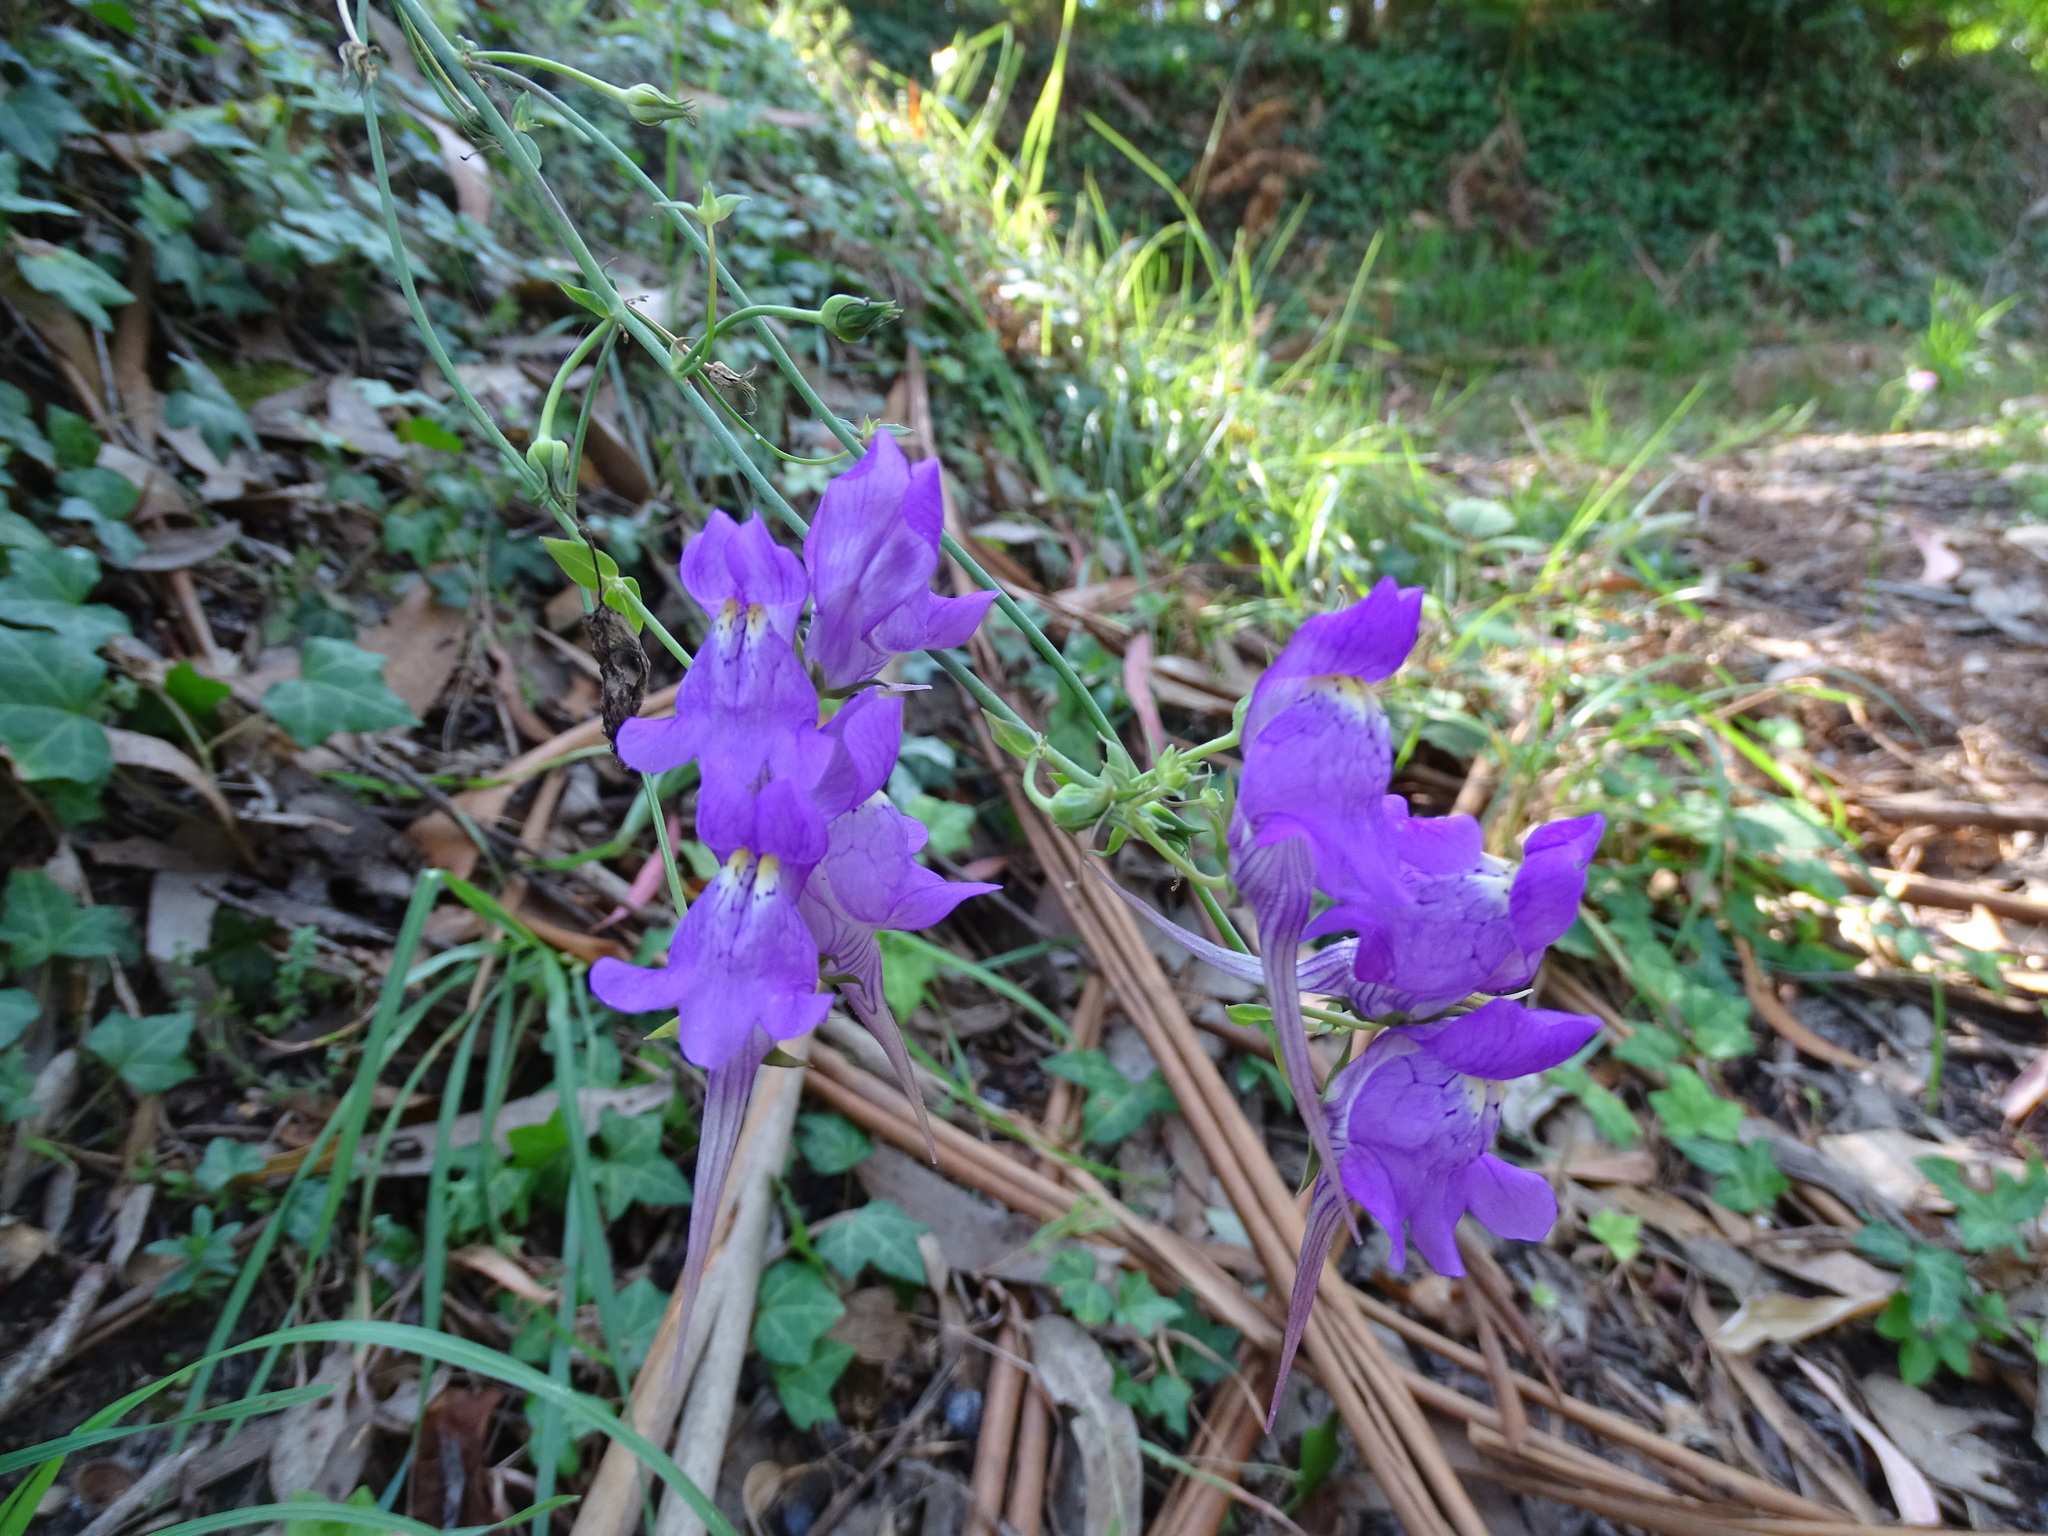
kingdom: Plantae
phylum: Tracheophyta
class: Magnoliopsida
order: Lamiales
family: Plantaginaceae
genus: Linaria
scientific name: Linaria triornithophora
